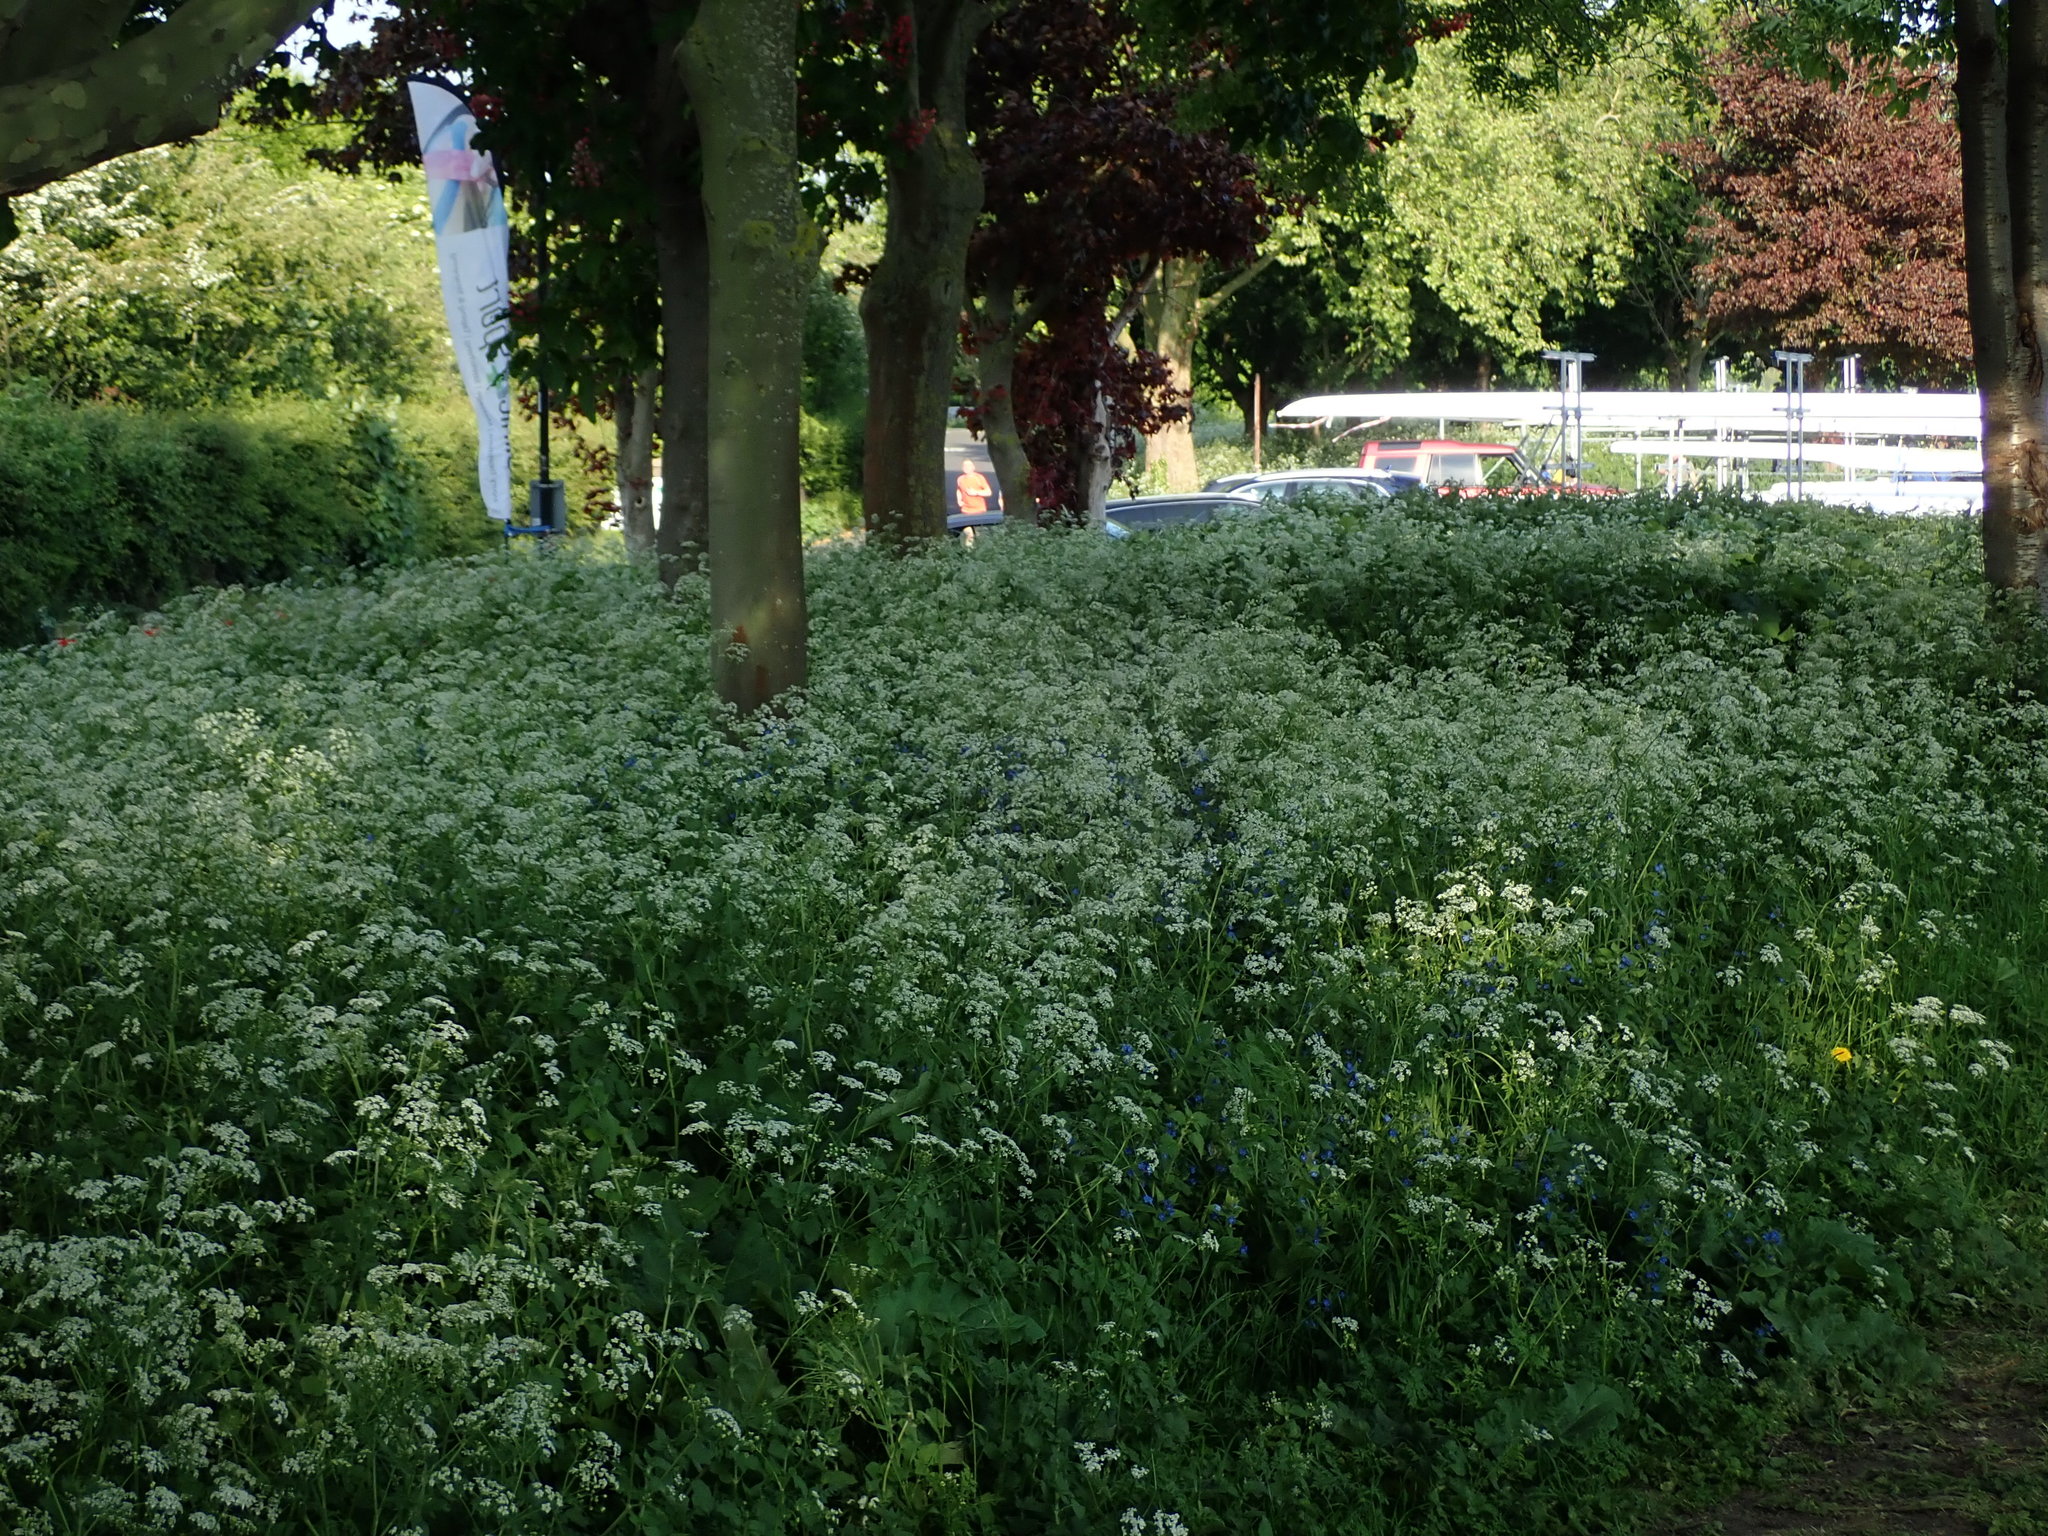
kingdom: Plantae
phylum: Tracheophyta
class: Magnoliopsida
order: Apiales
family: Apiaceae
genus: Anthriscus
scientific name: Anthriscus sylvestris
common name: Cow parsley
